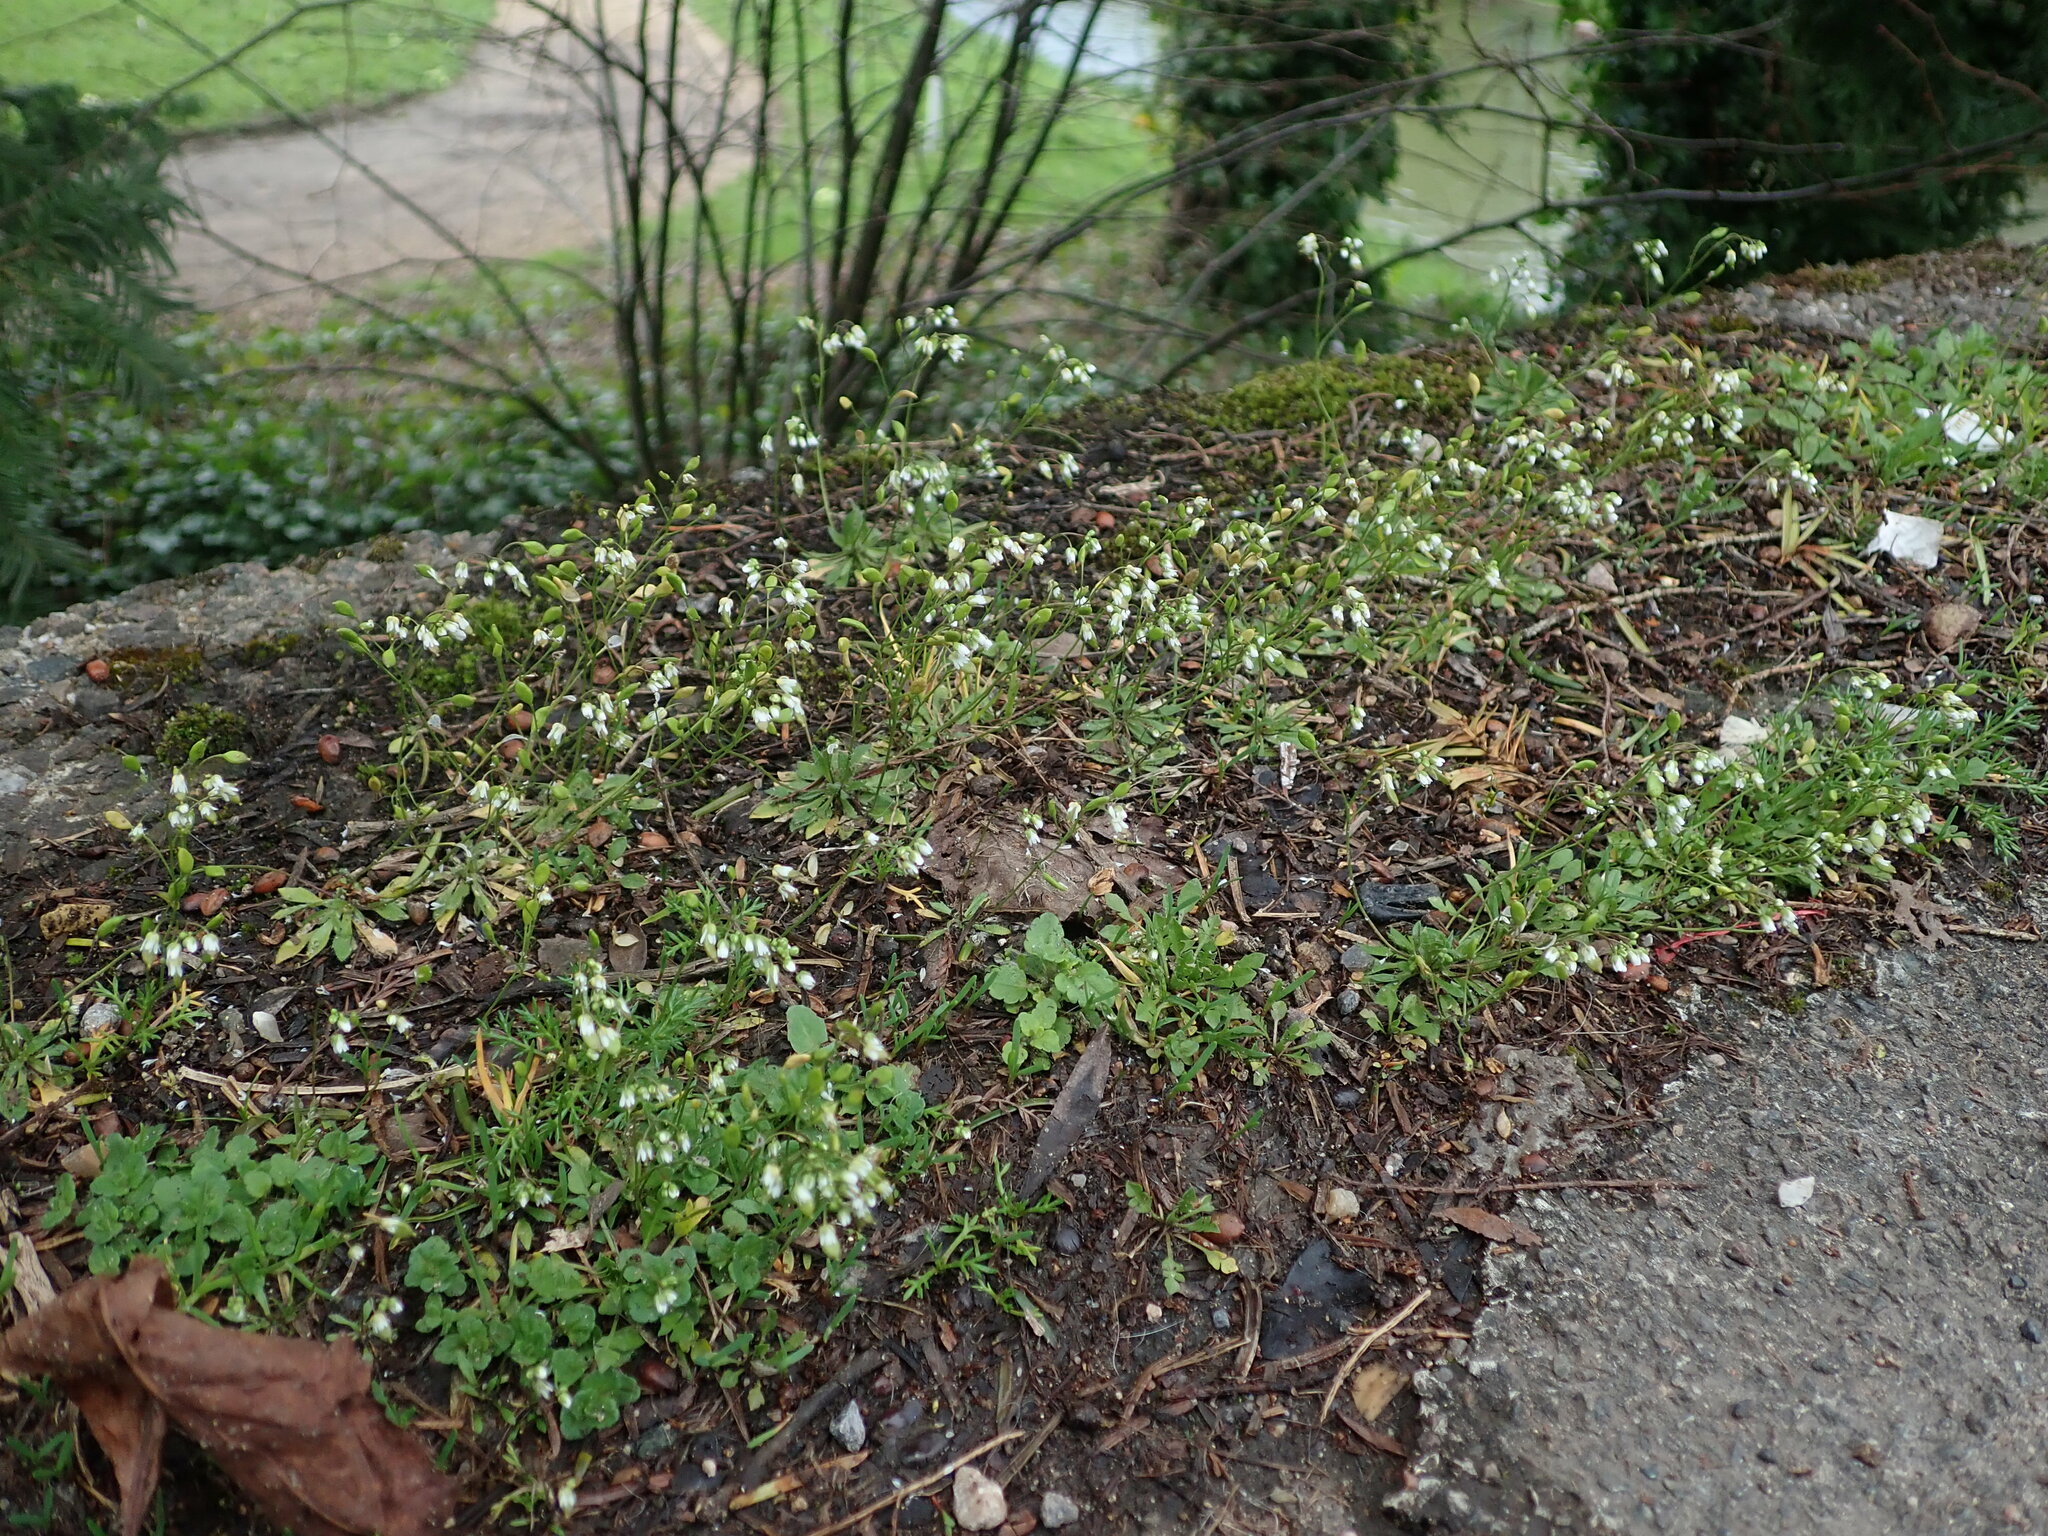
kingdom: Plantae
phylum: Tracheophyta
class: Magnoliopsida
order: Brassicales
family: Brassicaceae
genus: Draba
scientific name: Draba verna
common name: Spring draba
